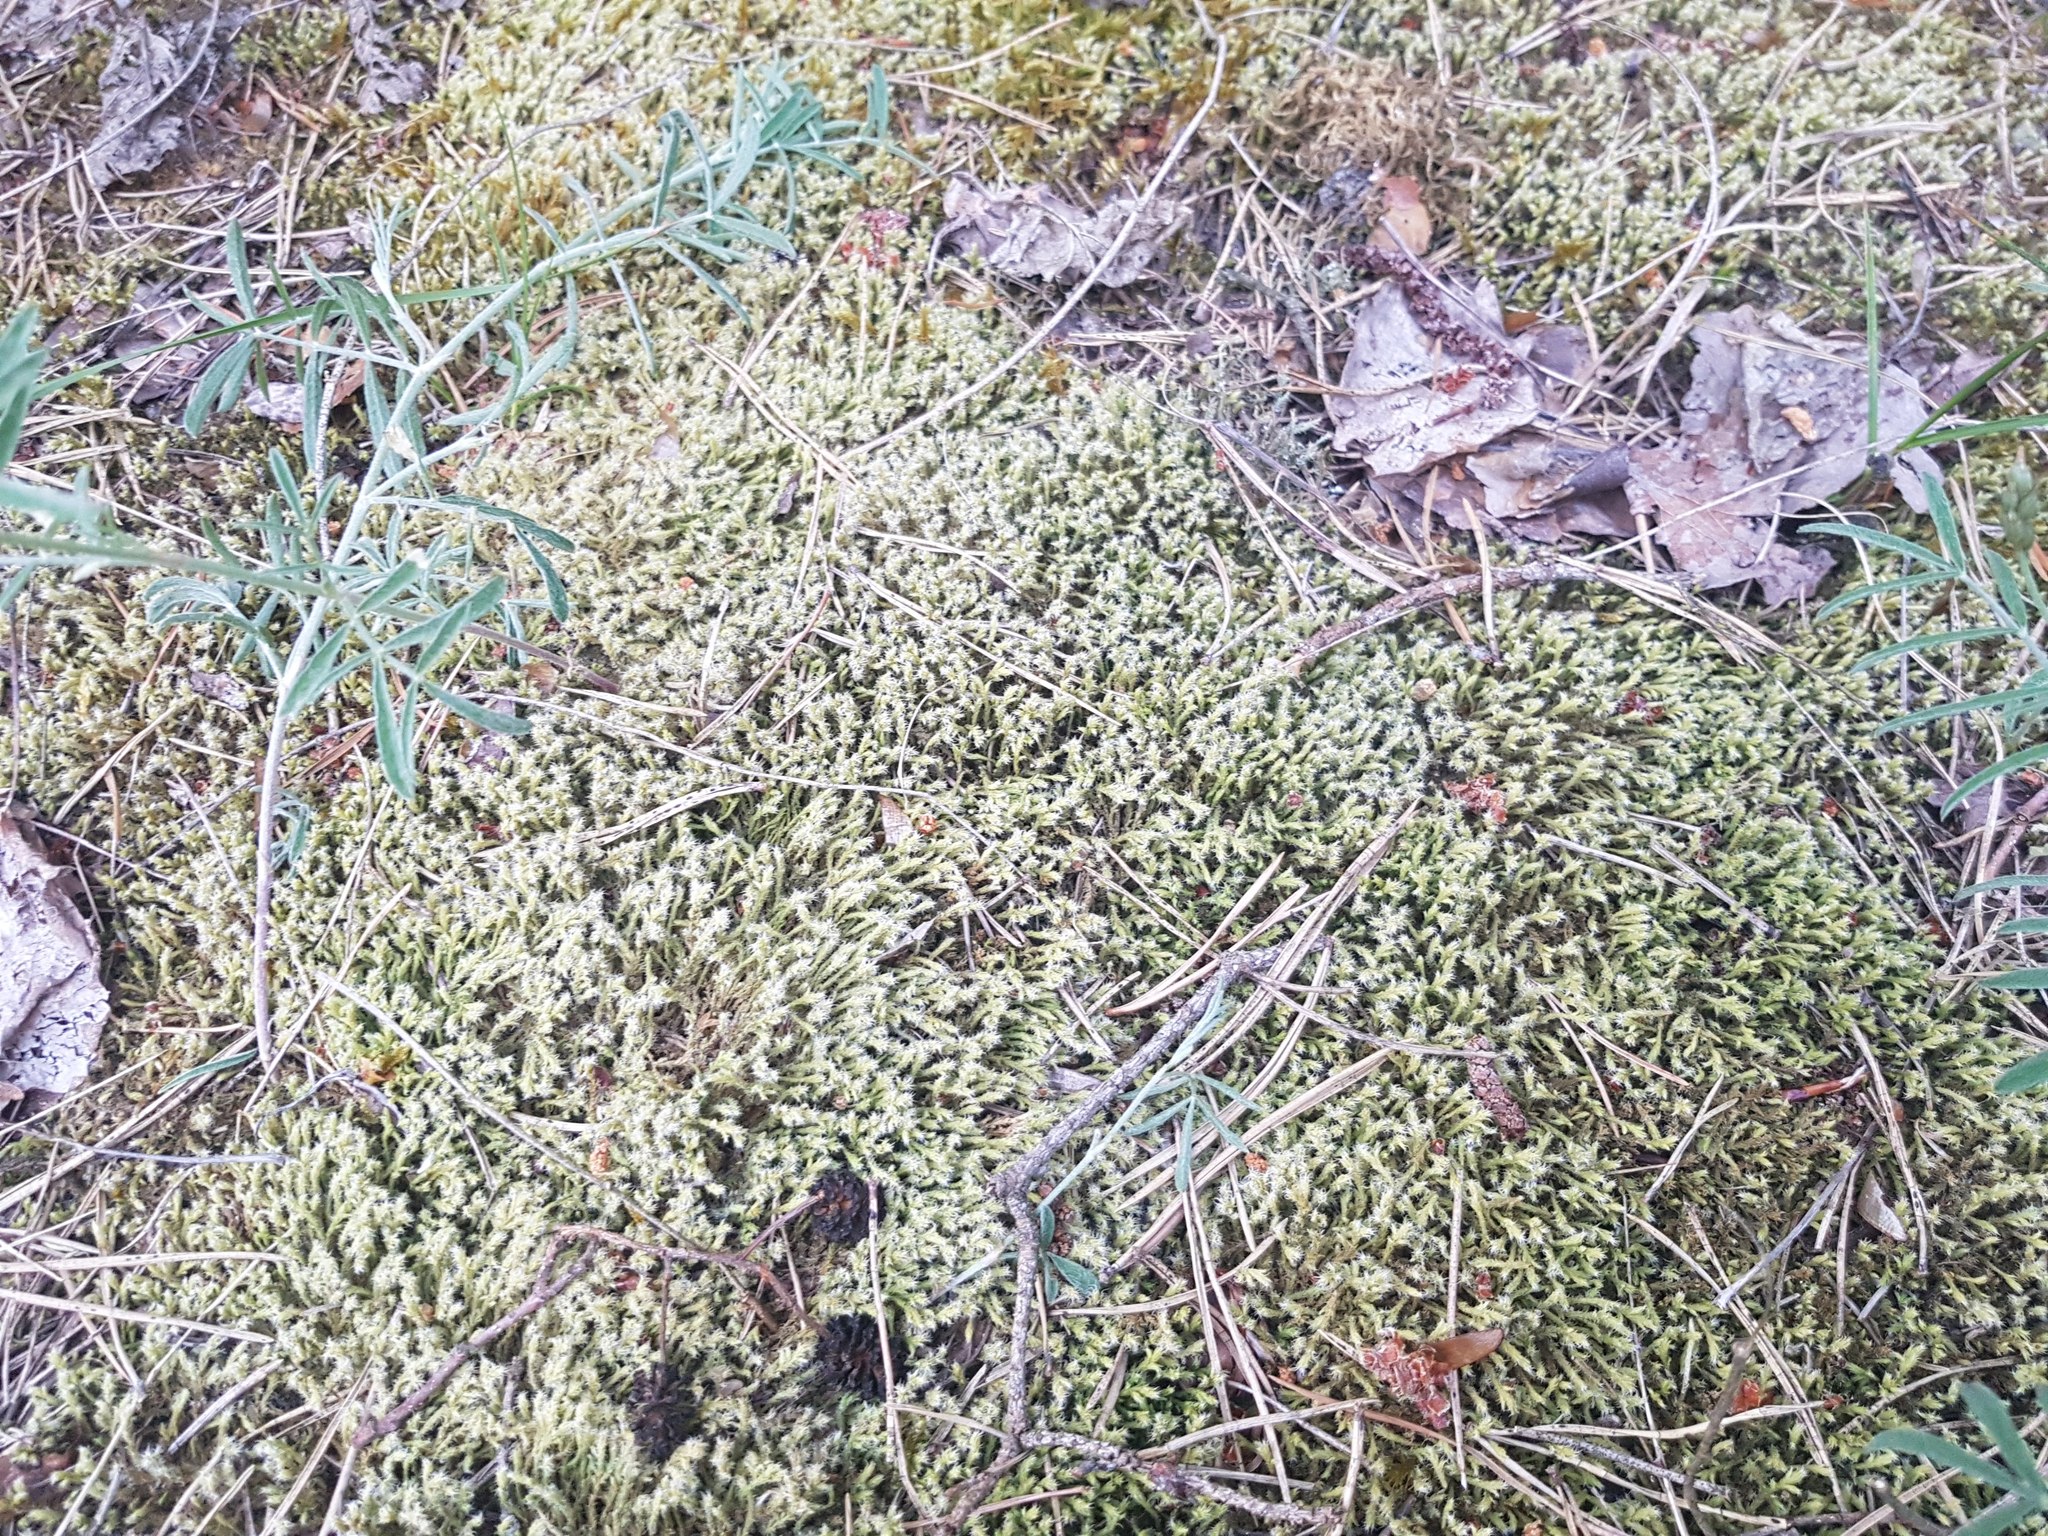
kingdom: Plantae
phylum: Bryophyta
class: Bryopsida
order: Grimmiales
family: Grimmiaceae
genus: Niphotrichum
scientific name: Niphotrichum canescens
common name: Hoary fringe-moss
